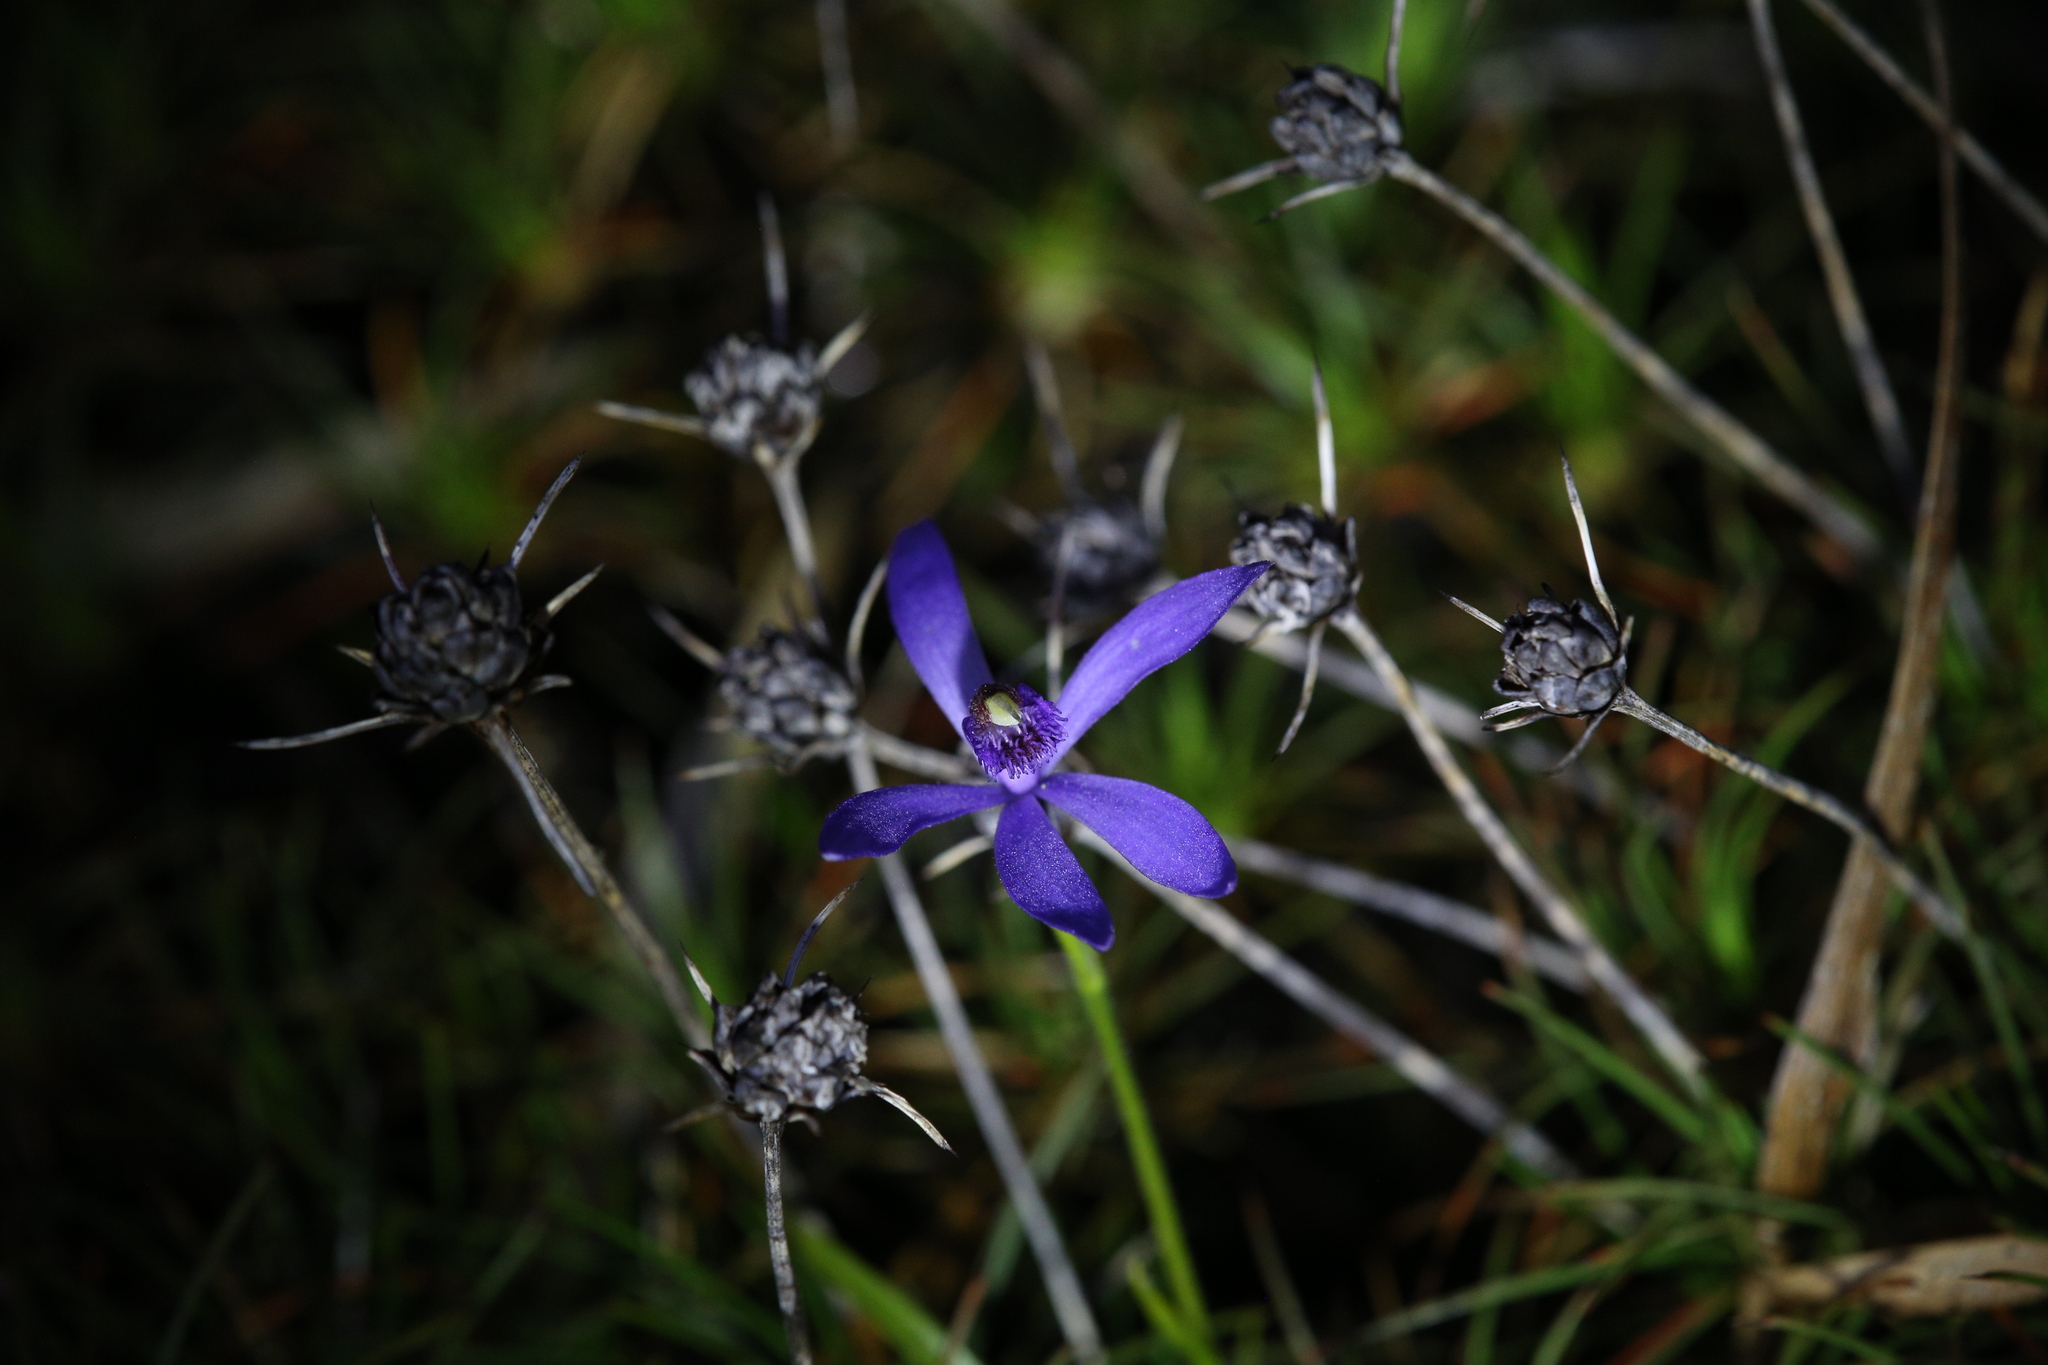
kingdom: Plantae
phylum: Tracheophyta
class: Liliopsida
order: Asparagales
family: Orchidaceae
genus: Pheladenia
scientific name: Pheladenia deformis
